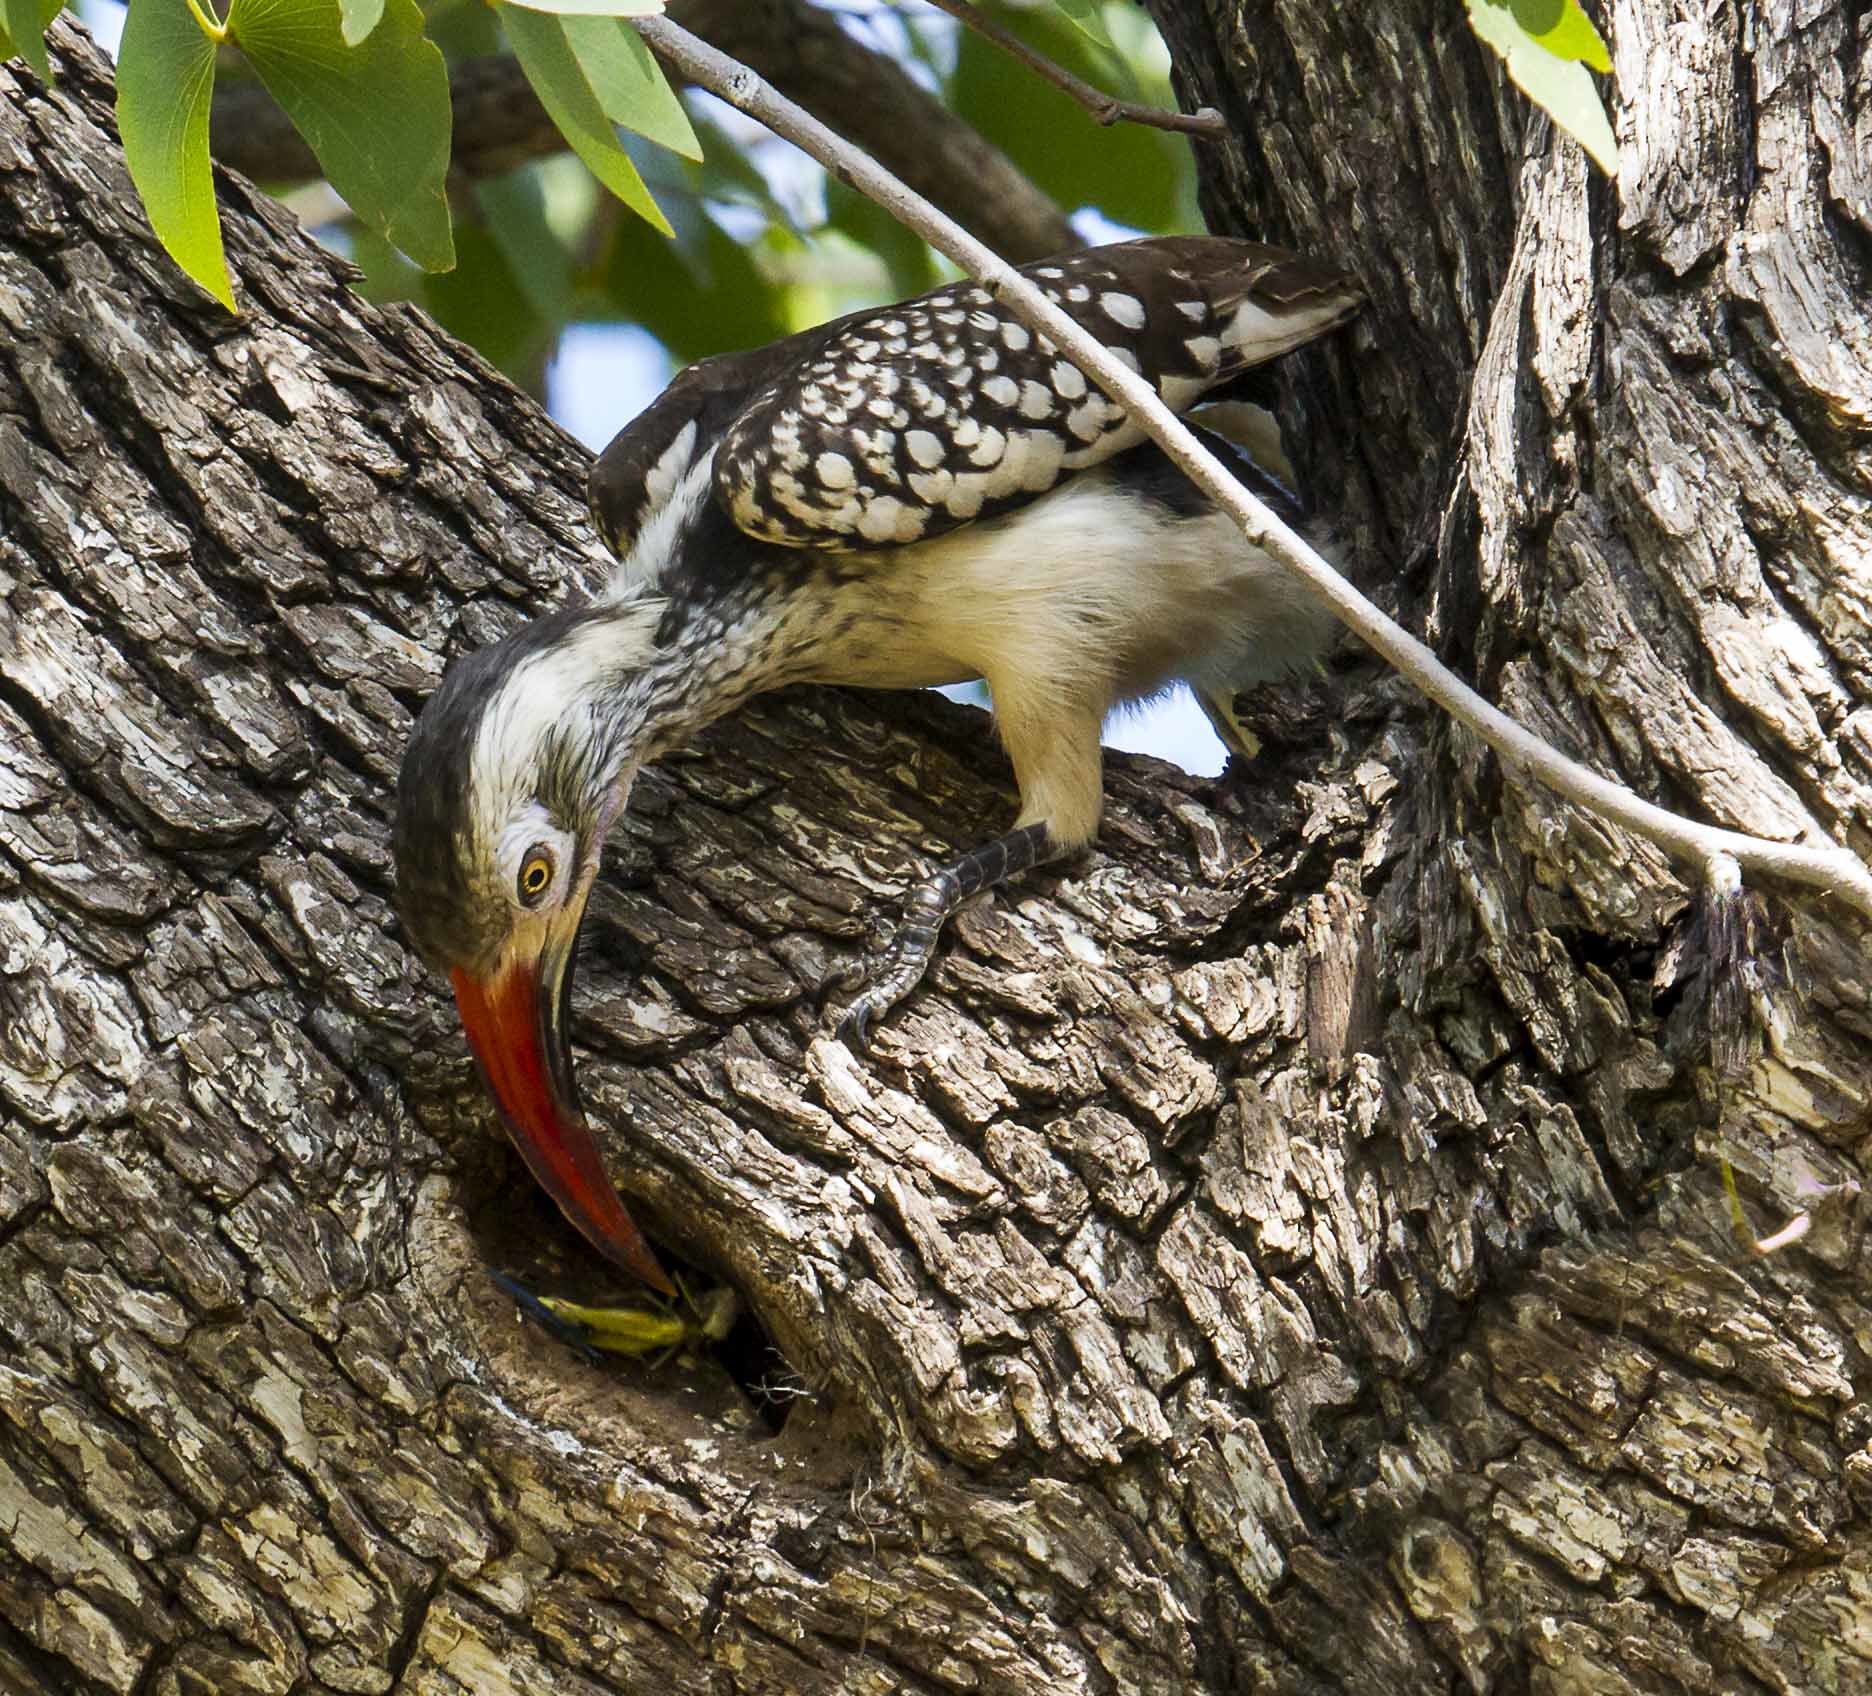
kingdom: Animalia
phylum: Chordata
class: Aves
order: Bucerotiformes
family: Bucerotidae
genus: Tockus
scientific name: Tockus rufirostris
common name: Southern red-billed hornbill
